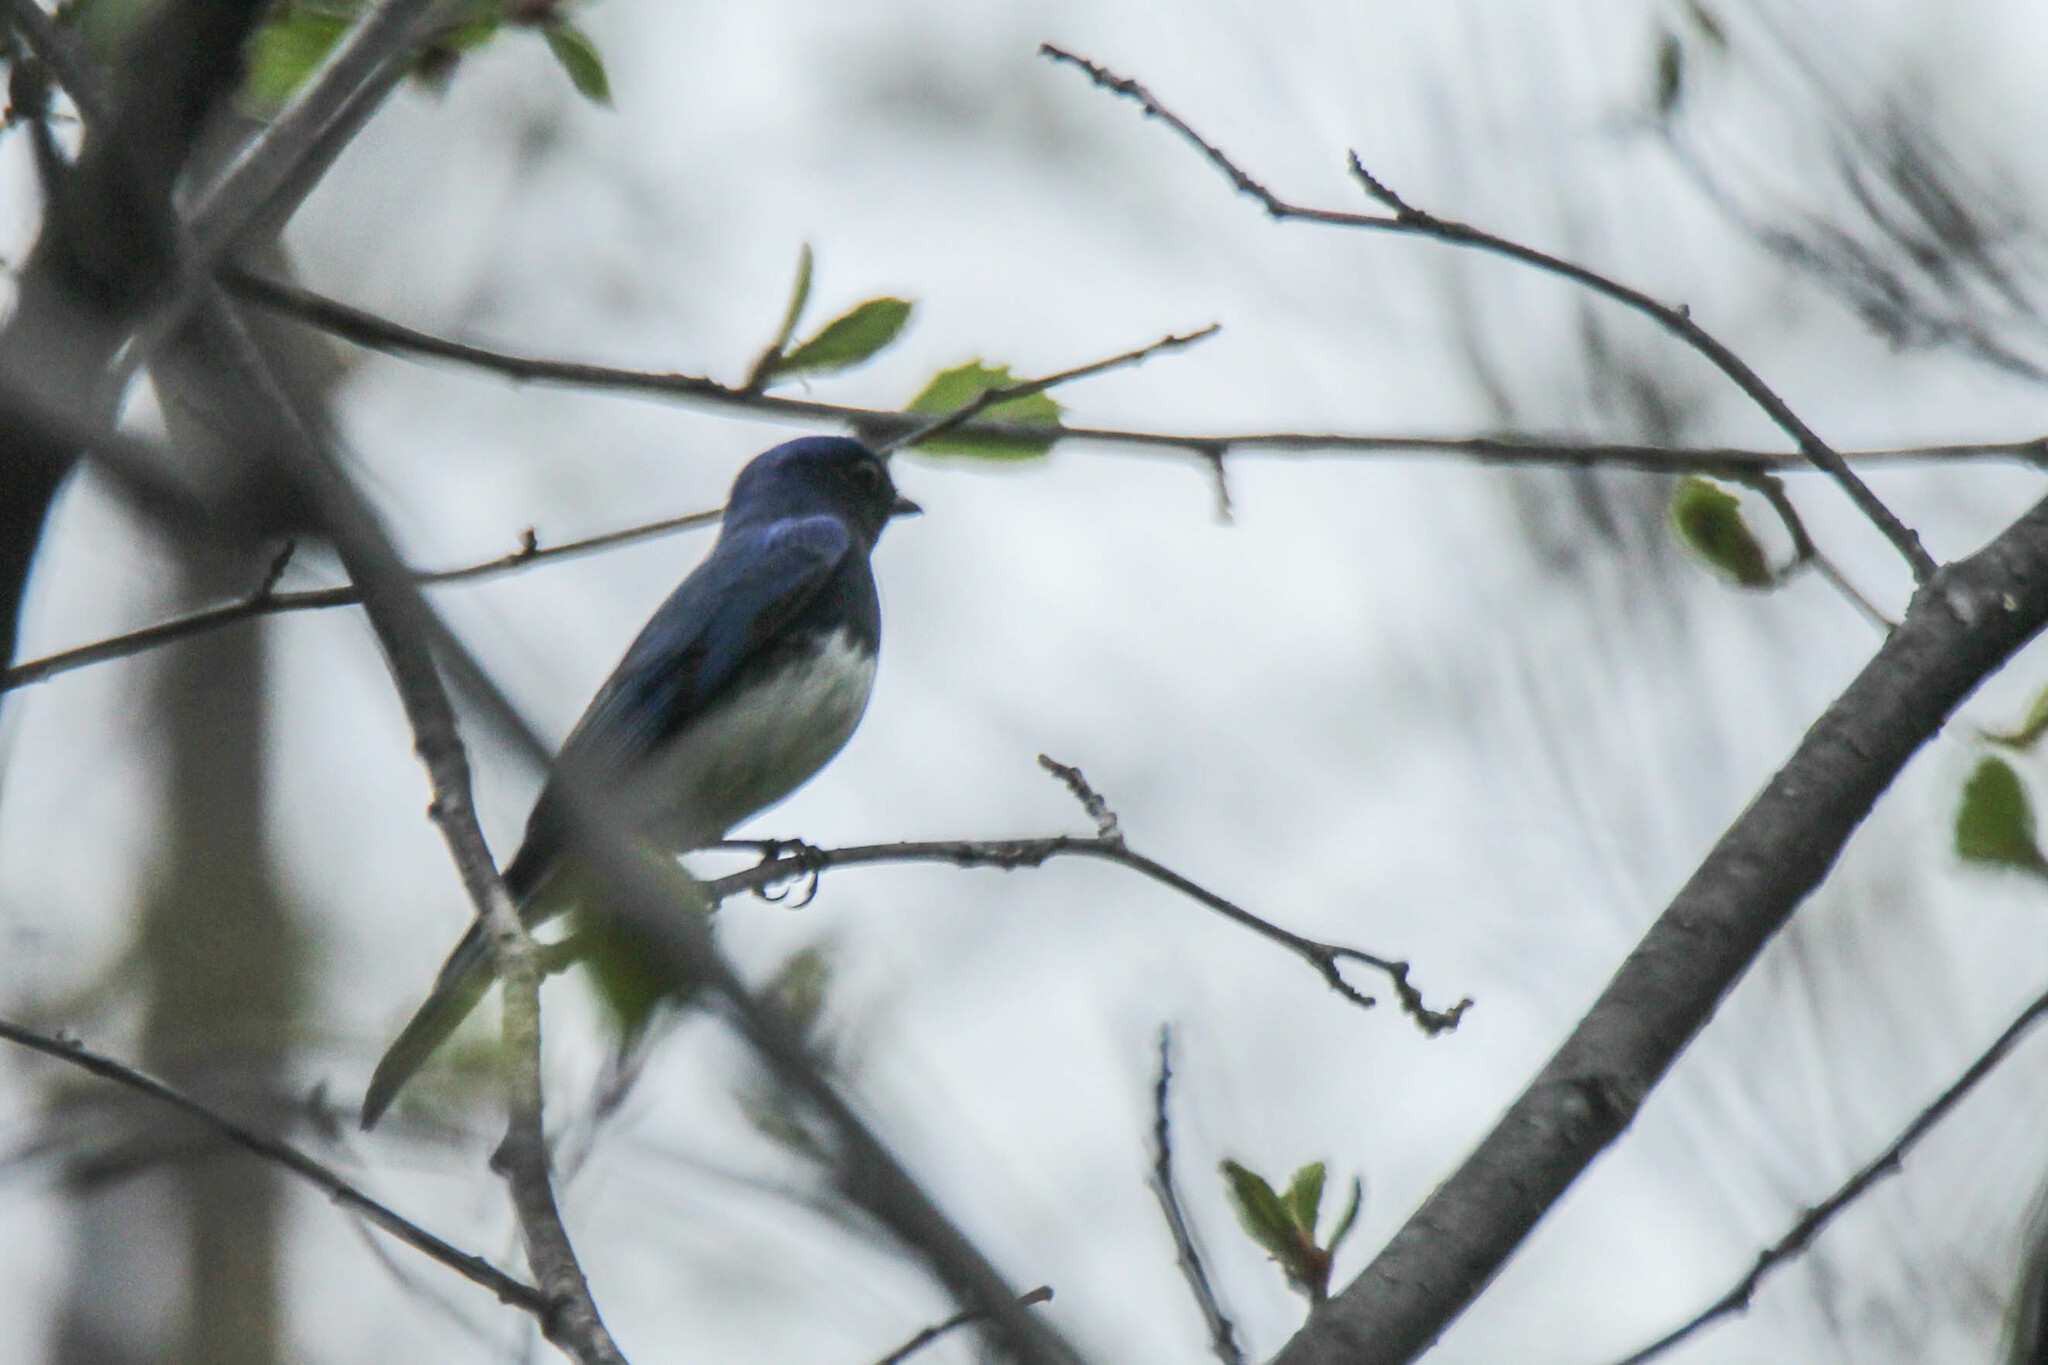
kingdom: Animalia
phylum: Chordata
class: Aves
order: Passeriformes
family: Muscicapidae
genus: Cyanoptila
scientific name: Cyanoptila cyanomelana
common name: Blue-and-white flycatcher
